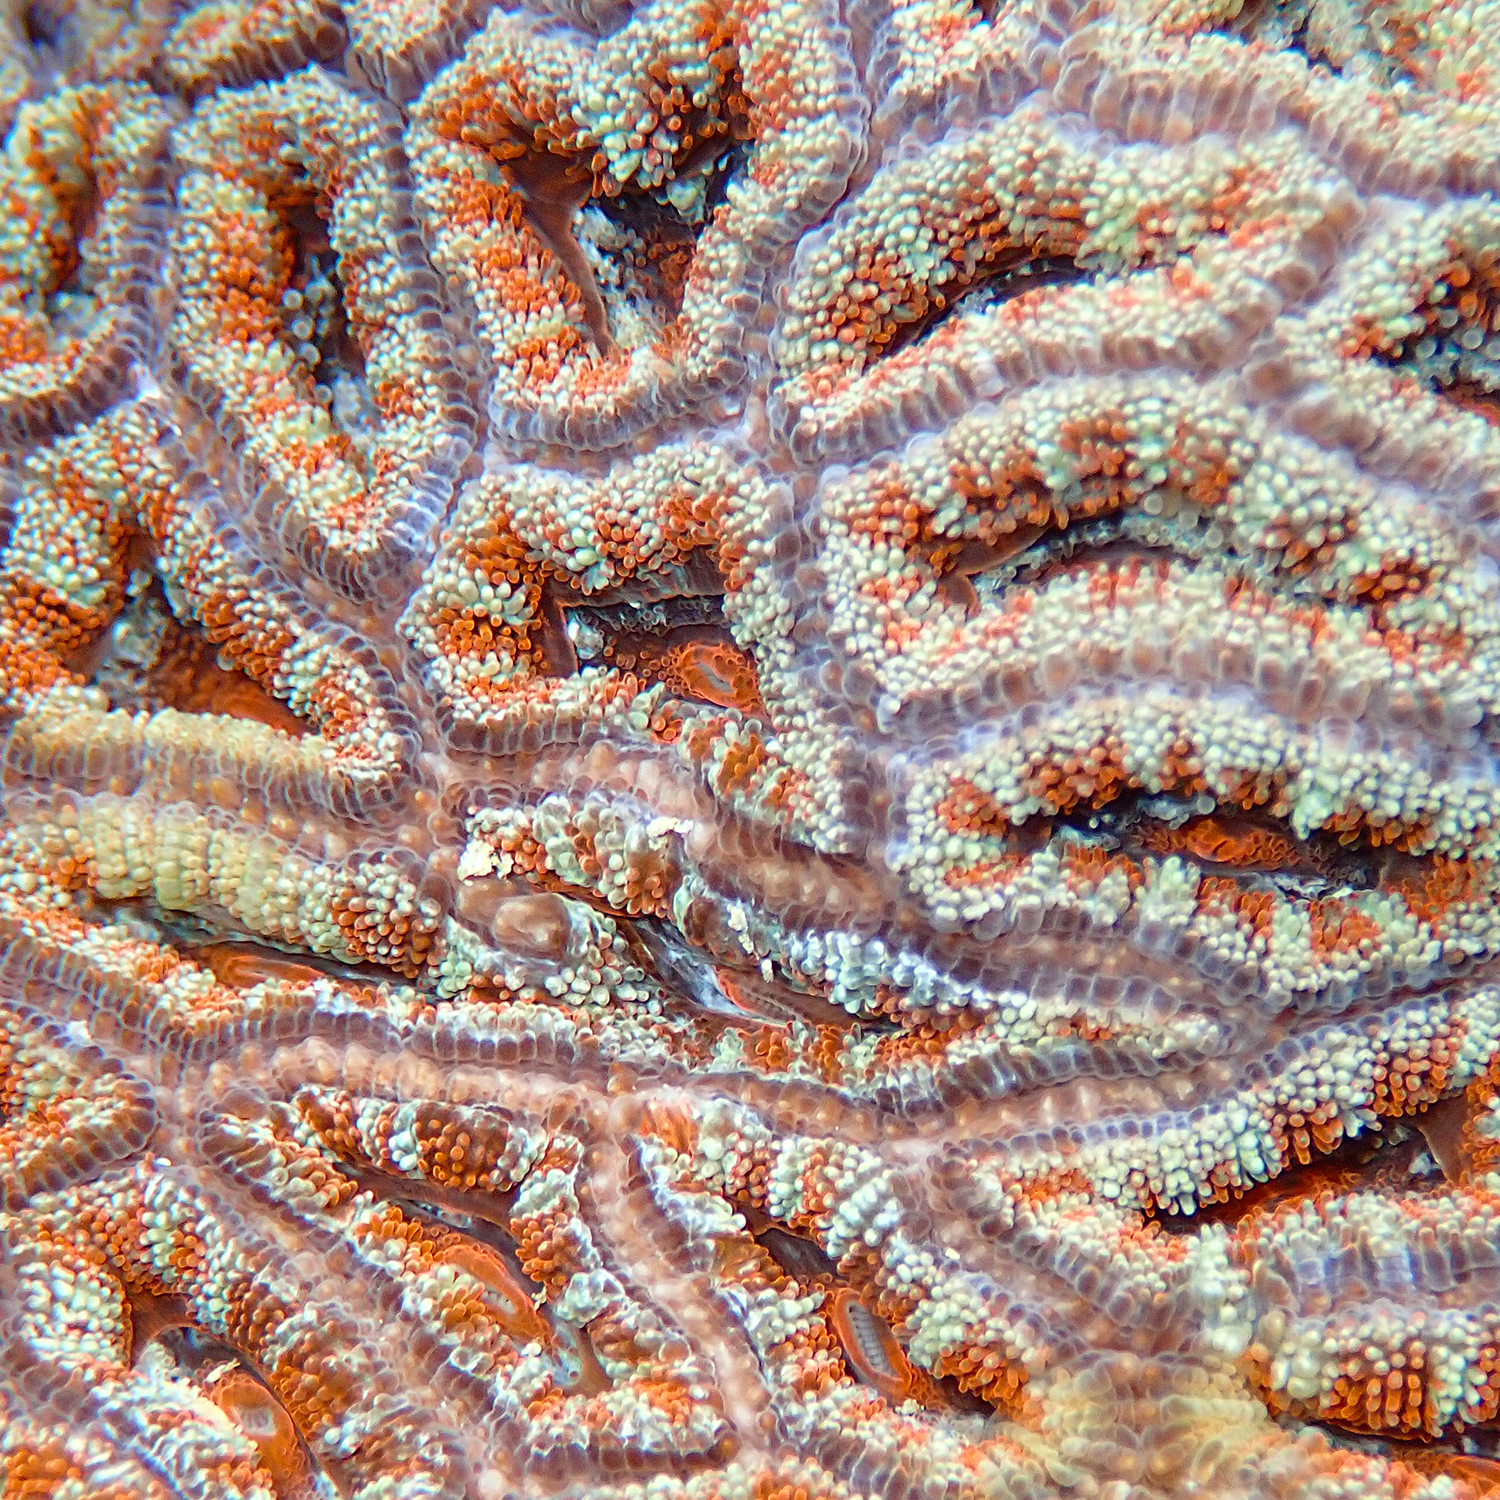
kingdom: Animalia
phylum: Cnidaria
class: Anthozoa
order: Scleractinia
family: Lobophylliidae
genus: Micromussa
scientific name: Micromussa lordhowensis
